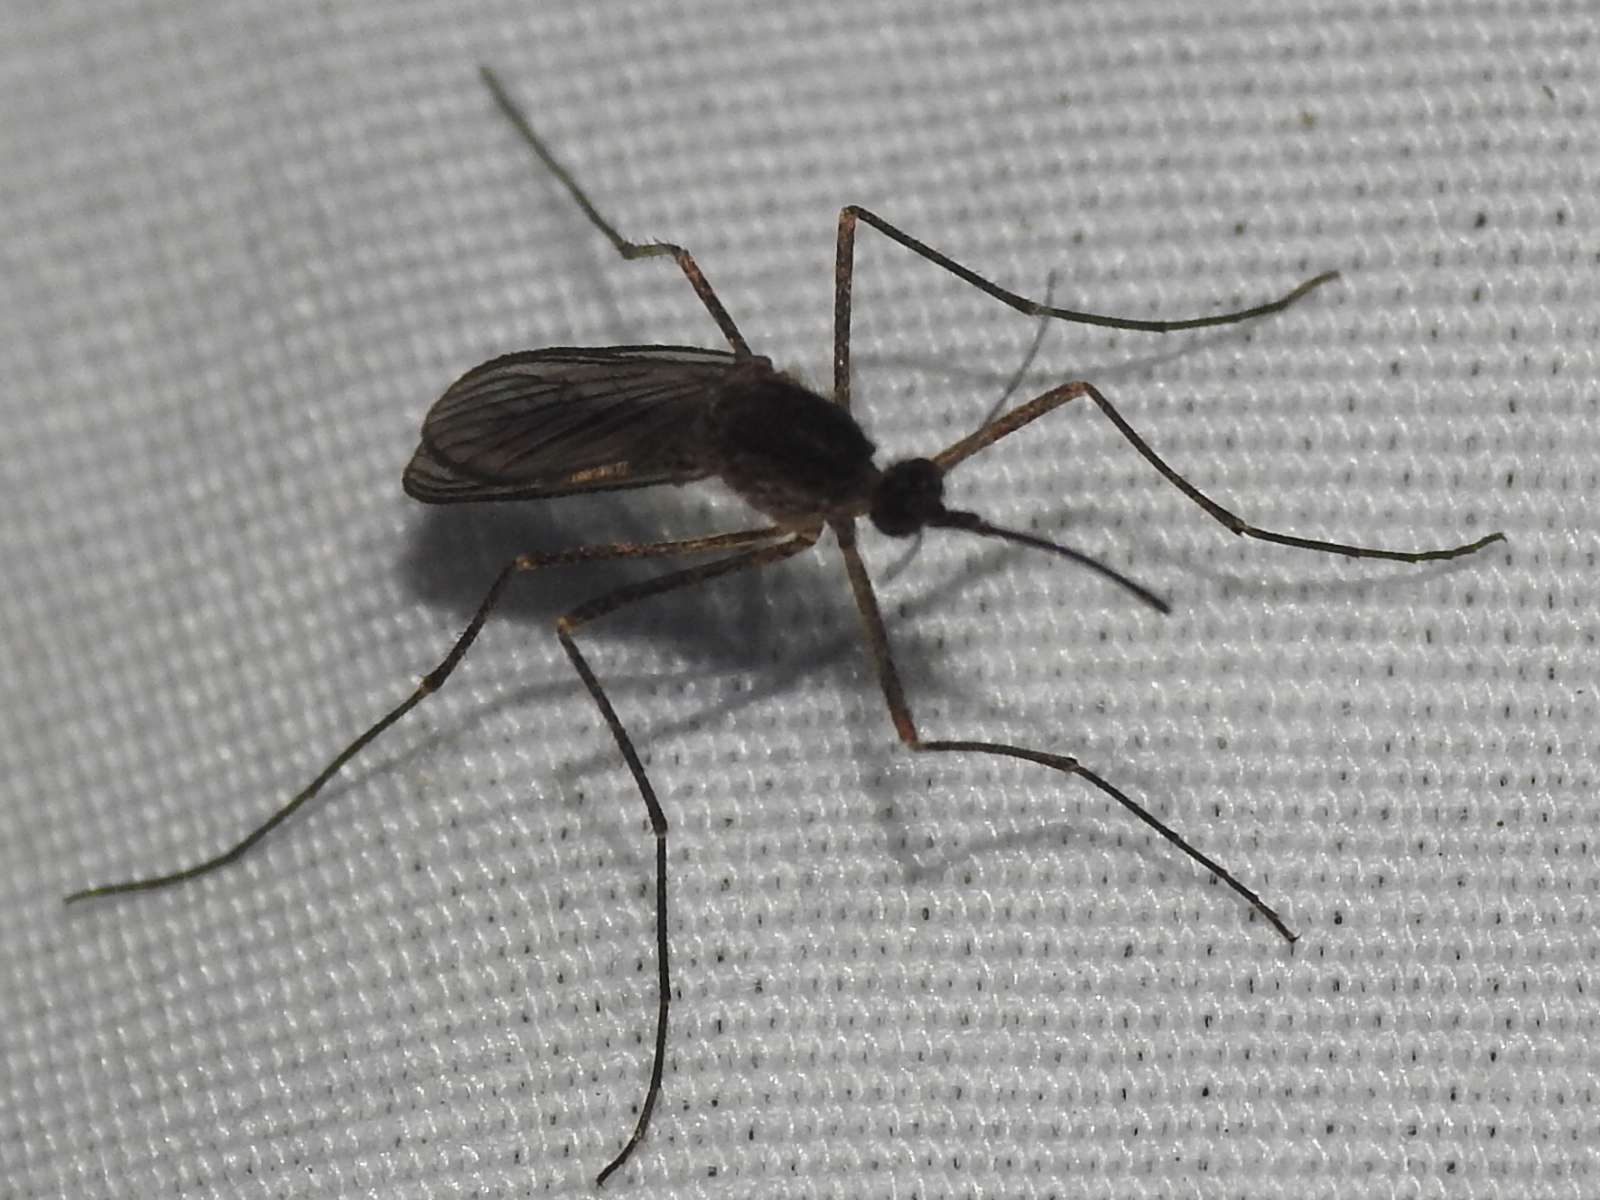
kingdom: Animalia
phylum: Arthropoda
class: Insecta
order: Diptera
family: Culicidae
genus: Culiseta
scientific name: Culiseta inornata
